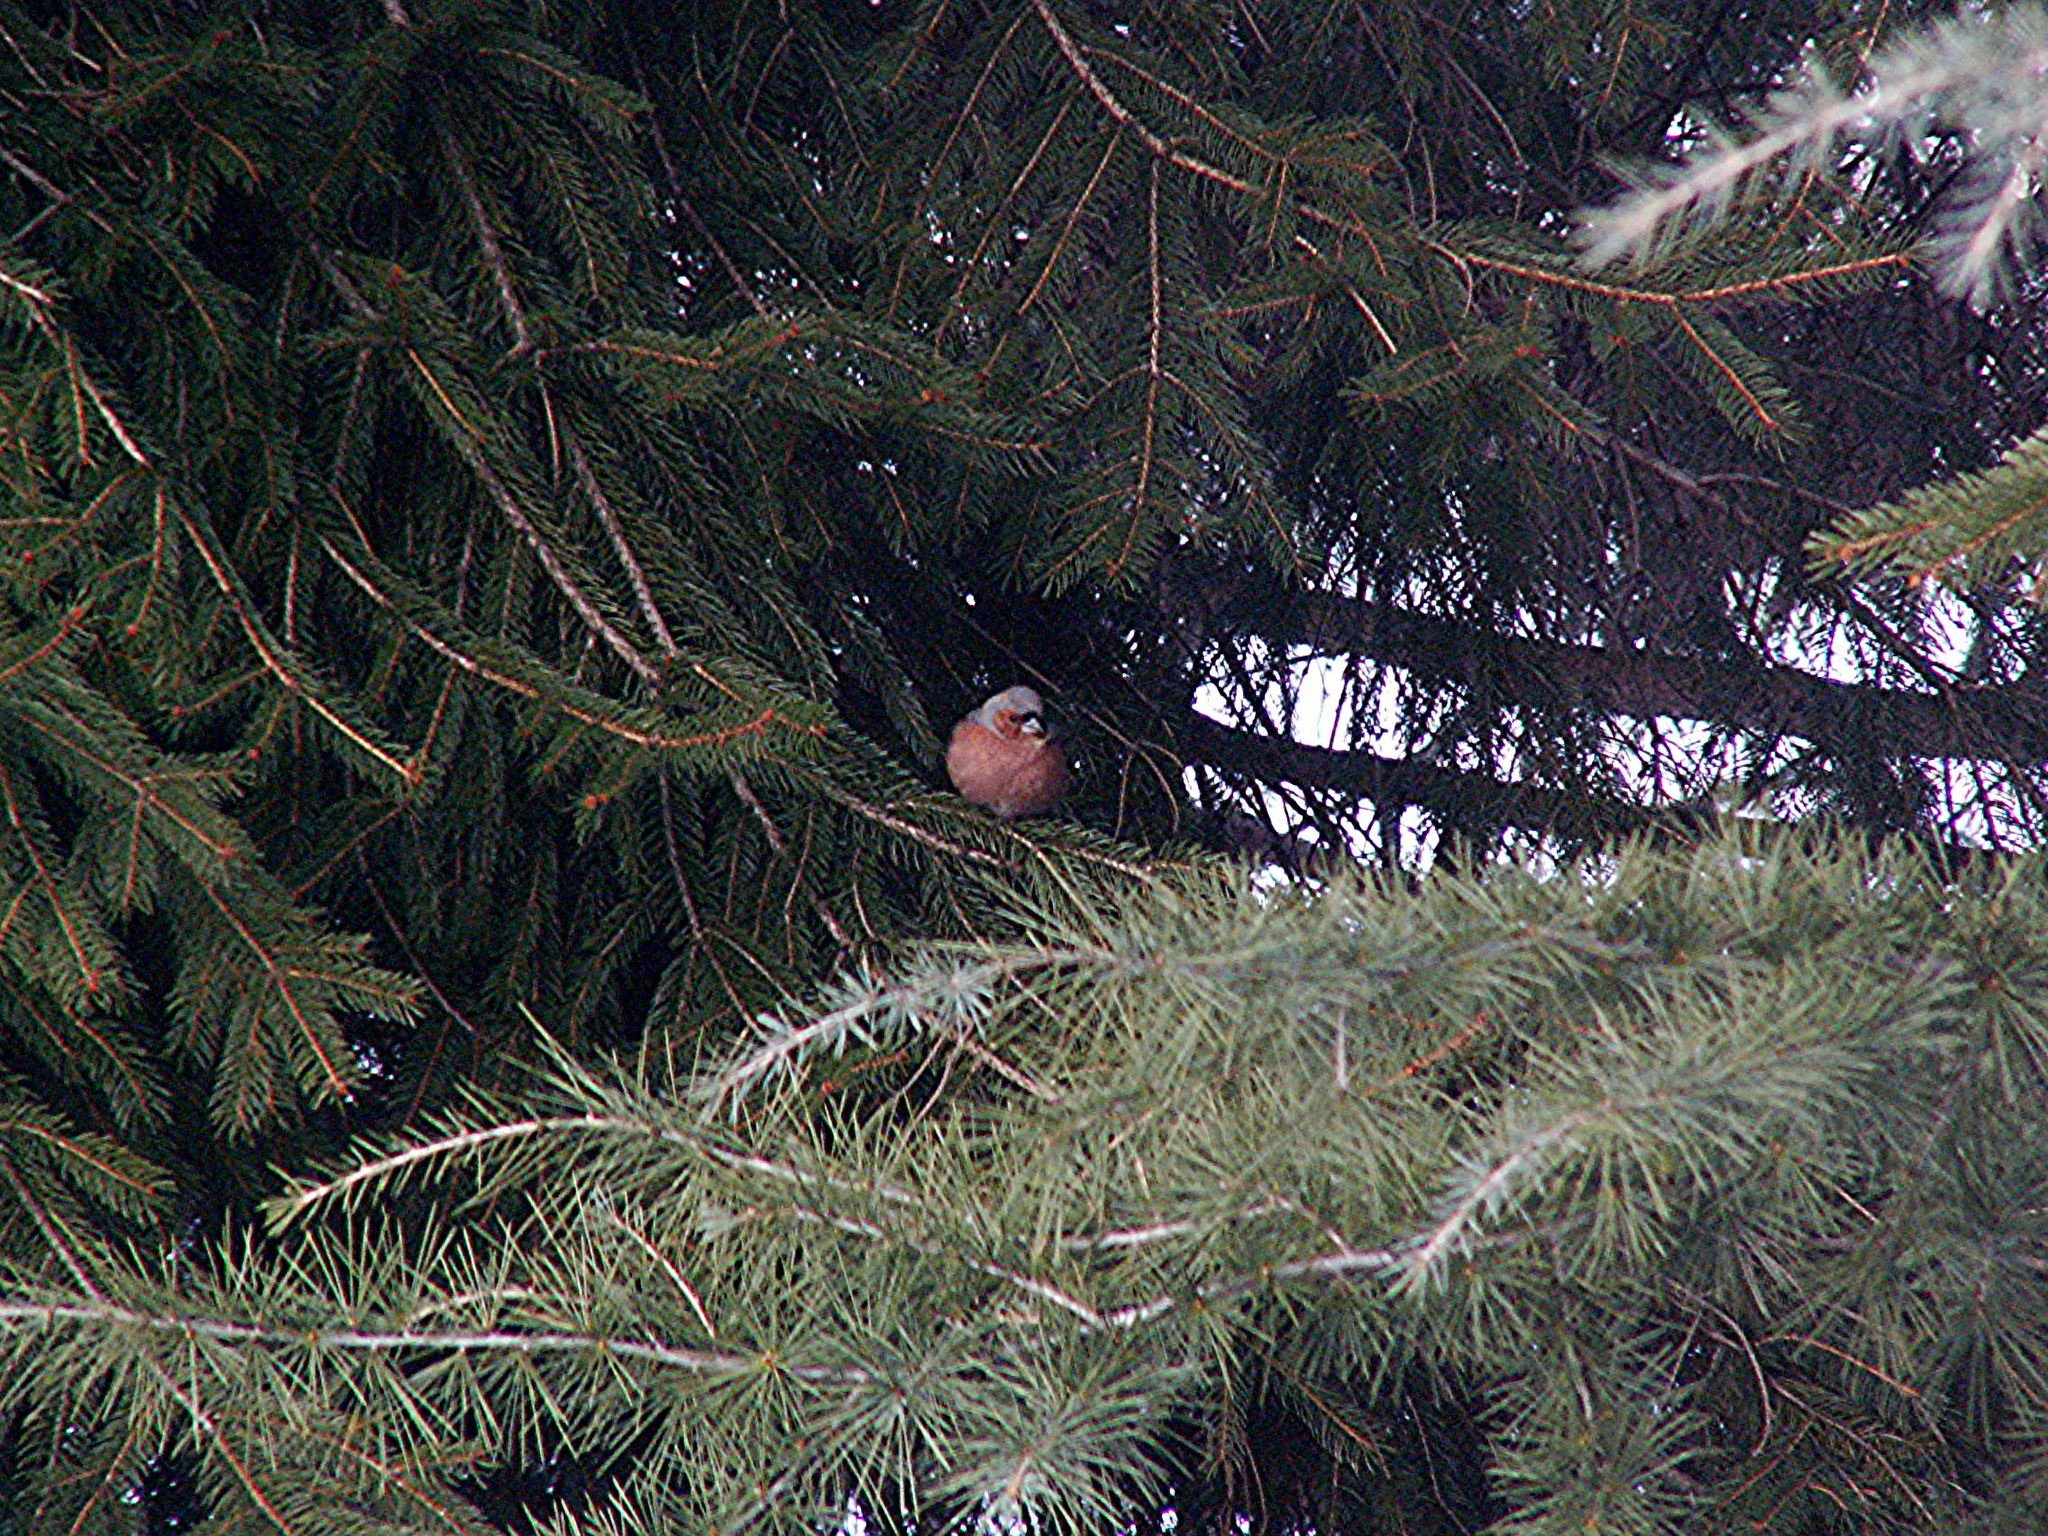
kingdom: Animalia
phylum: Chordata
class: Aves
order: Passeriformes
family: Fringillidae
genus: Fringilla
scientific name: Fringilla coelebs
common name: Common chaffinch
